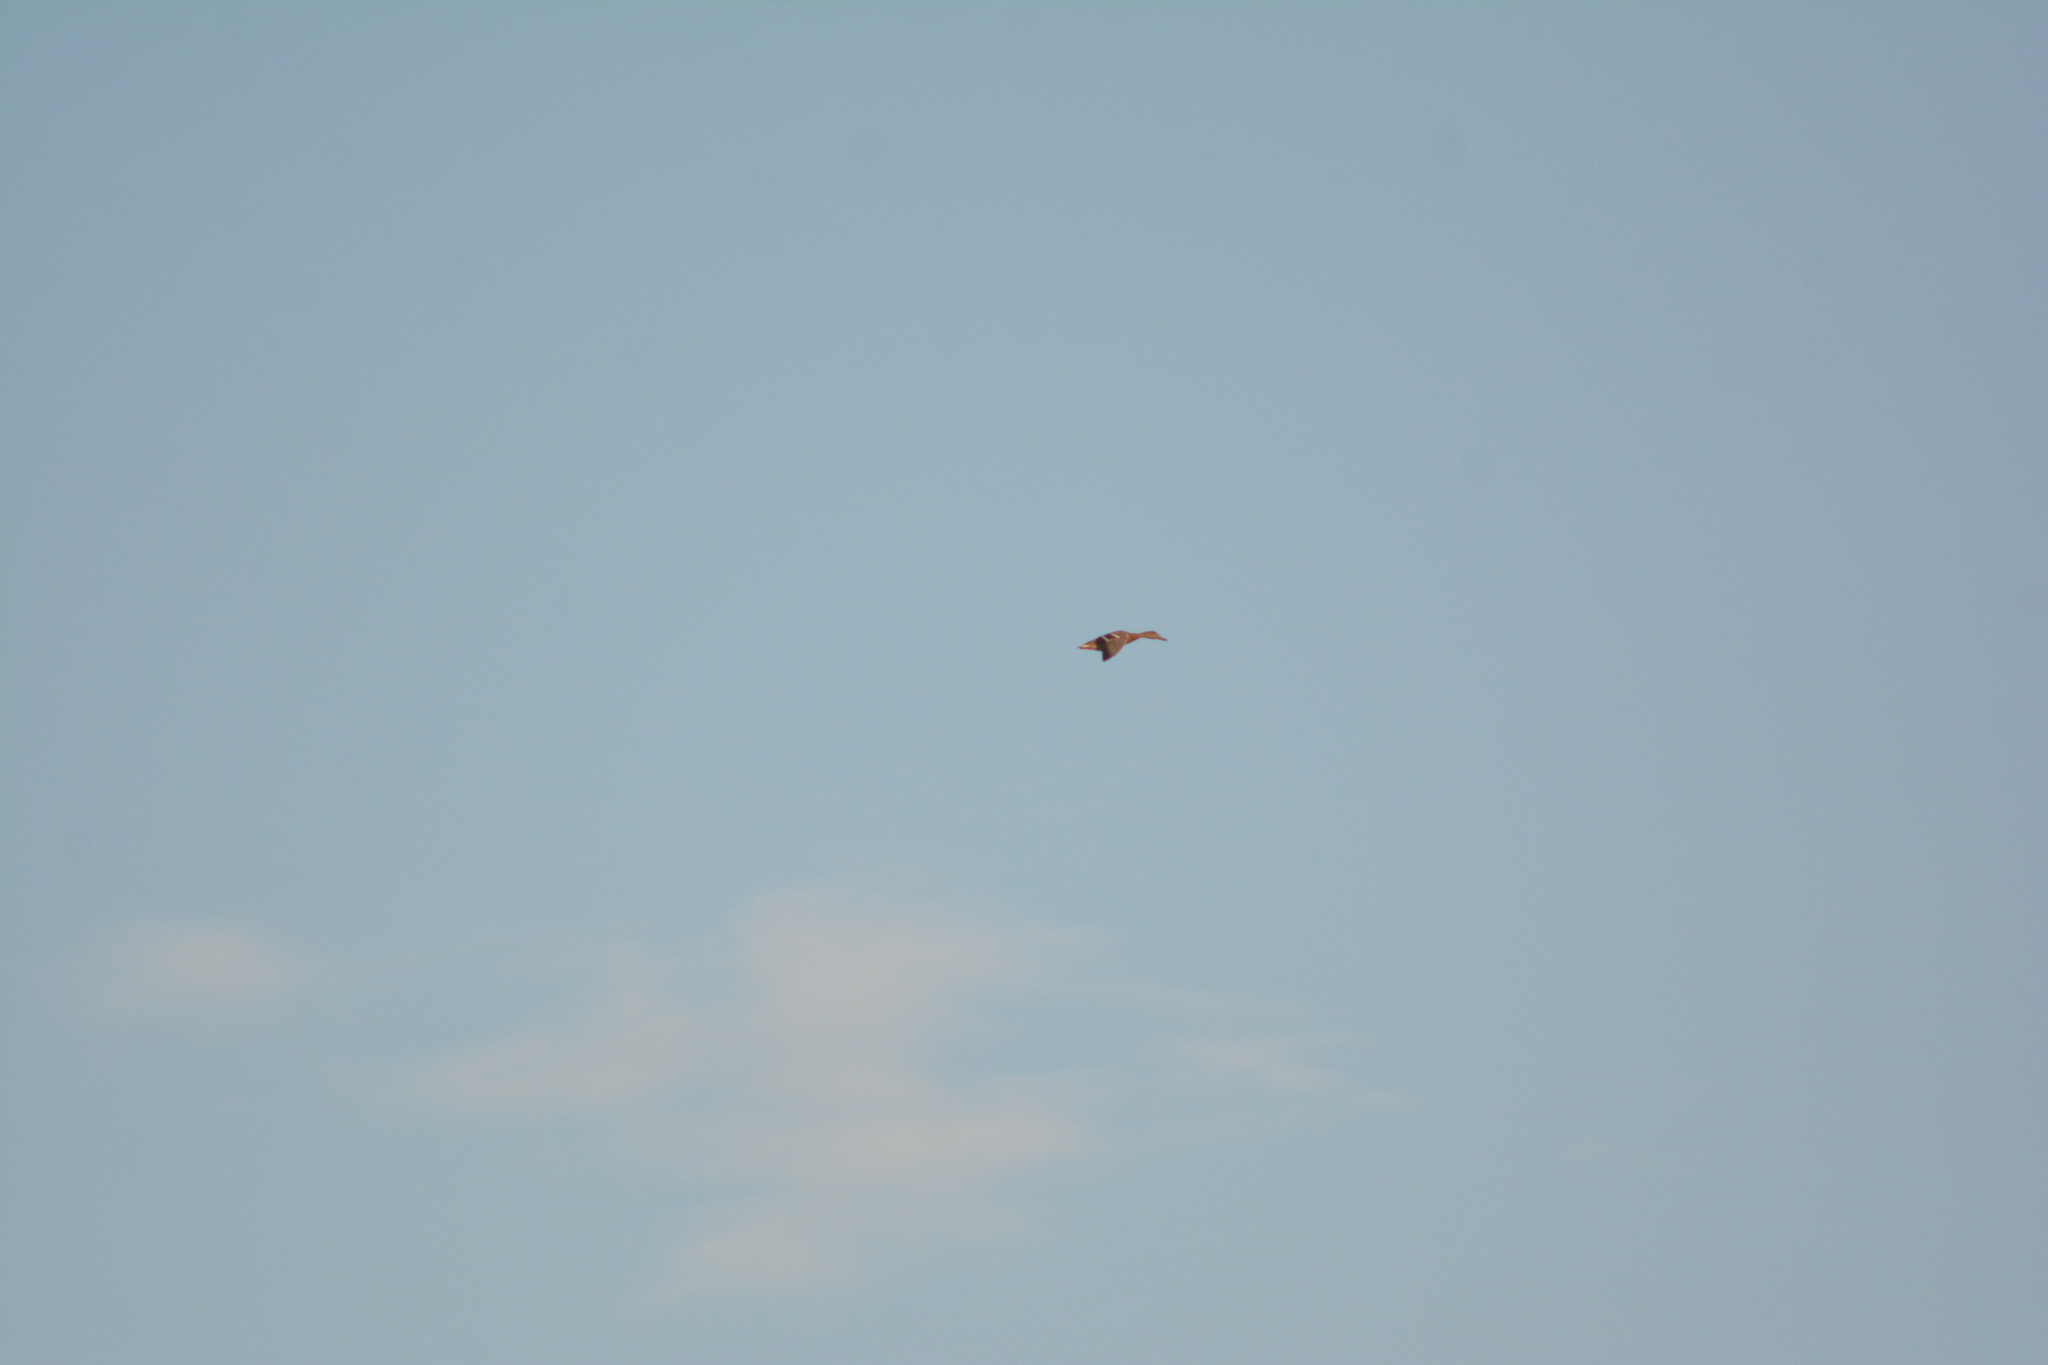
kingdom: Animalia
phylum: Chordata
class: Aves
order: Anseriformes
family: Anatidae
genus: Anas
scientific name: Anas platyrhynchos
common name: Mallard
